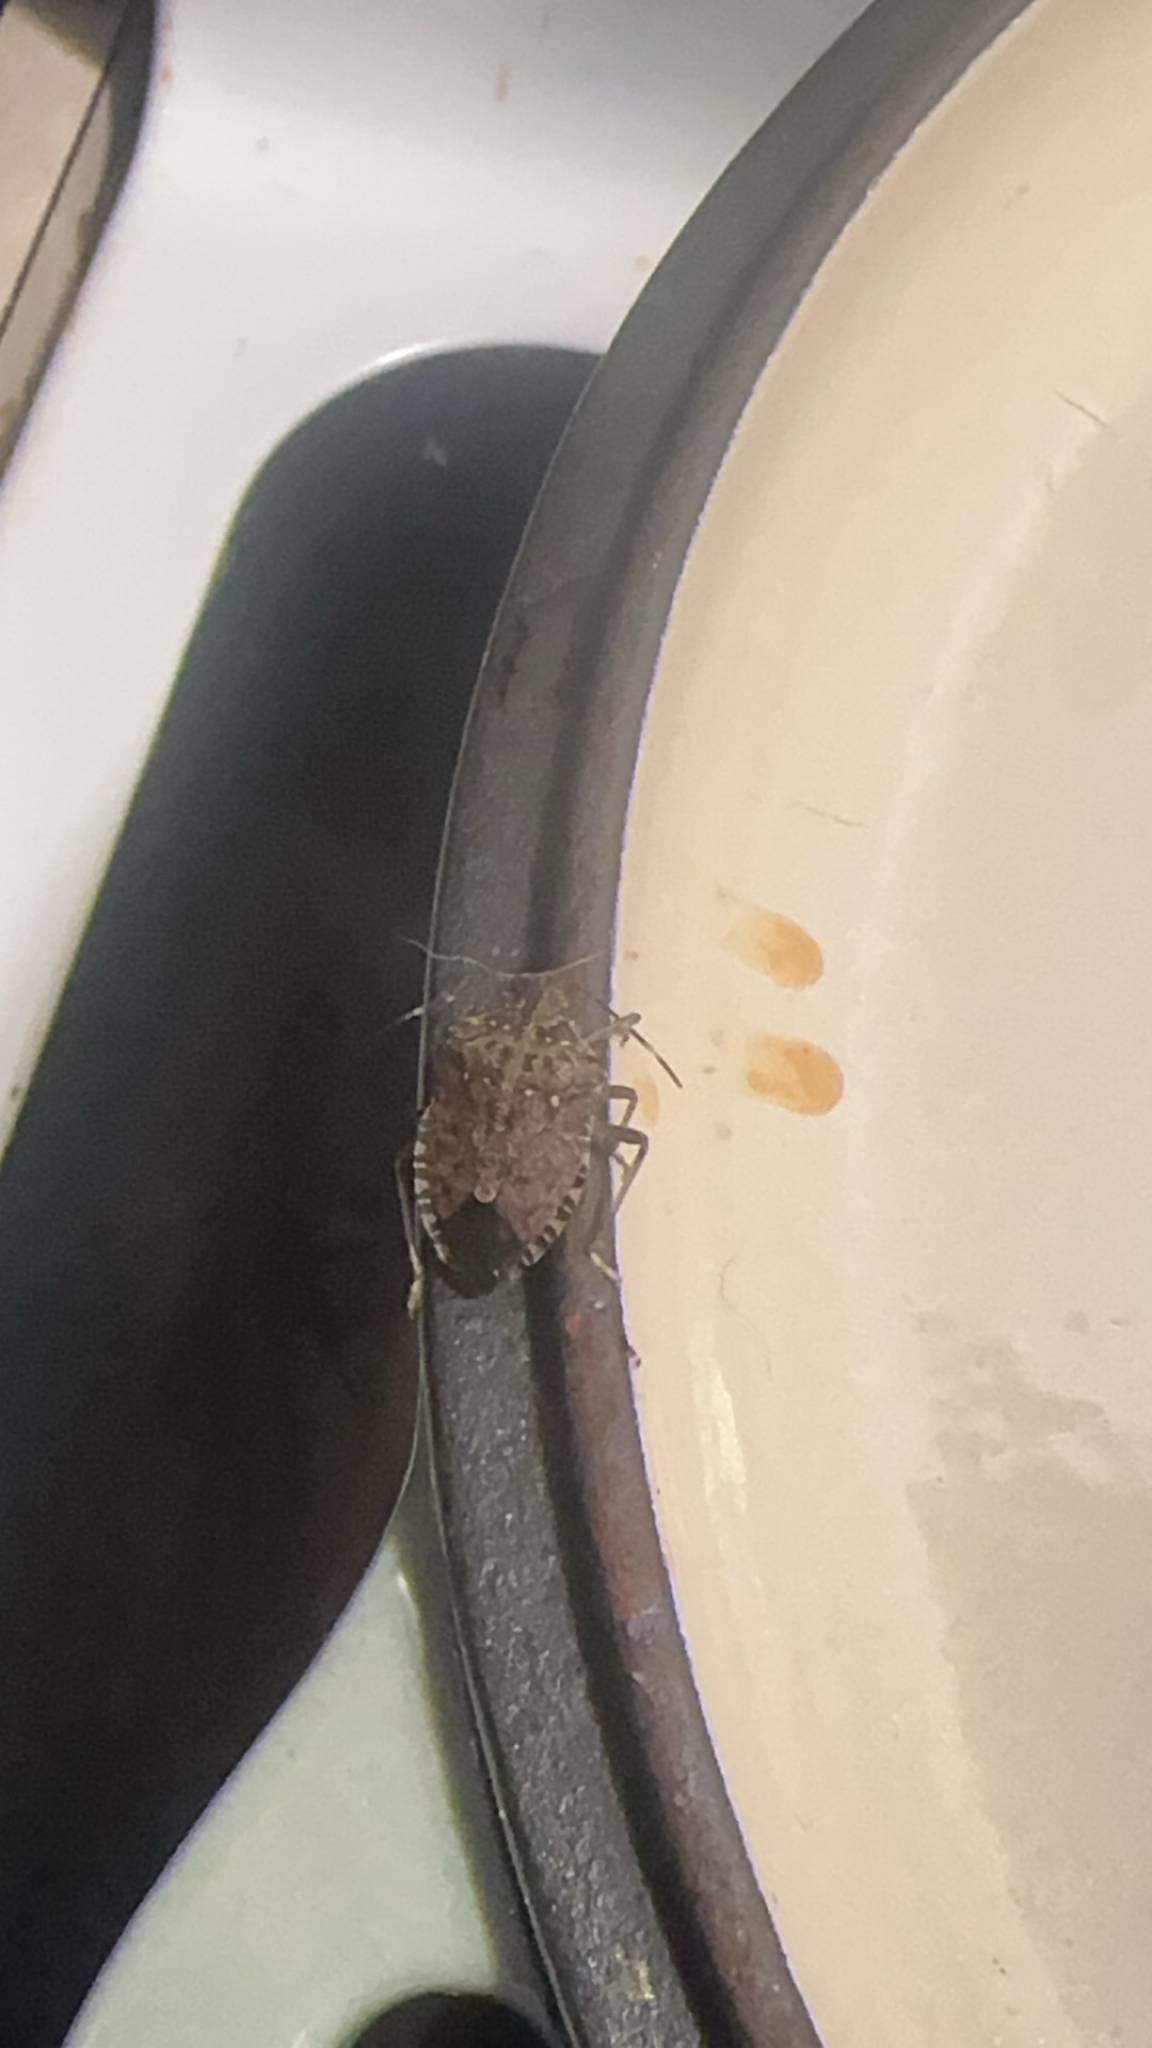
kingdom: Animalia
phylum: Arthropoda
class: Insecta
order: Hemiptera
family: Pentatomidae
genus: Halyomorpha
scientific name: Halyomorpha halys
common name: Brown marmorated stink bug
